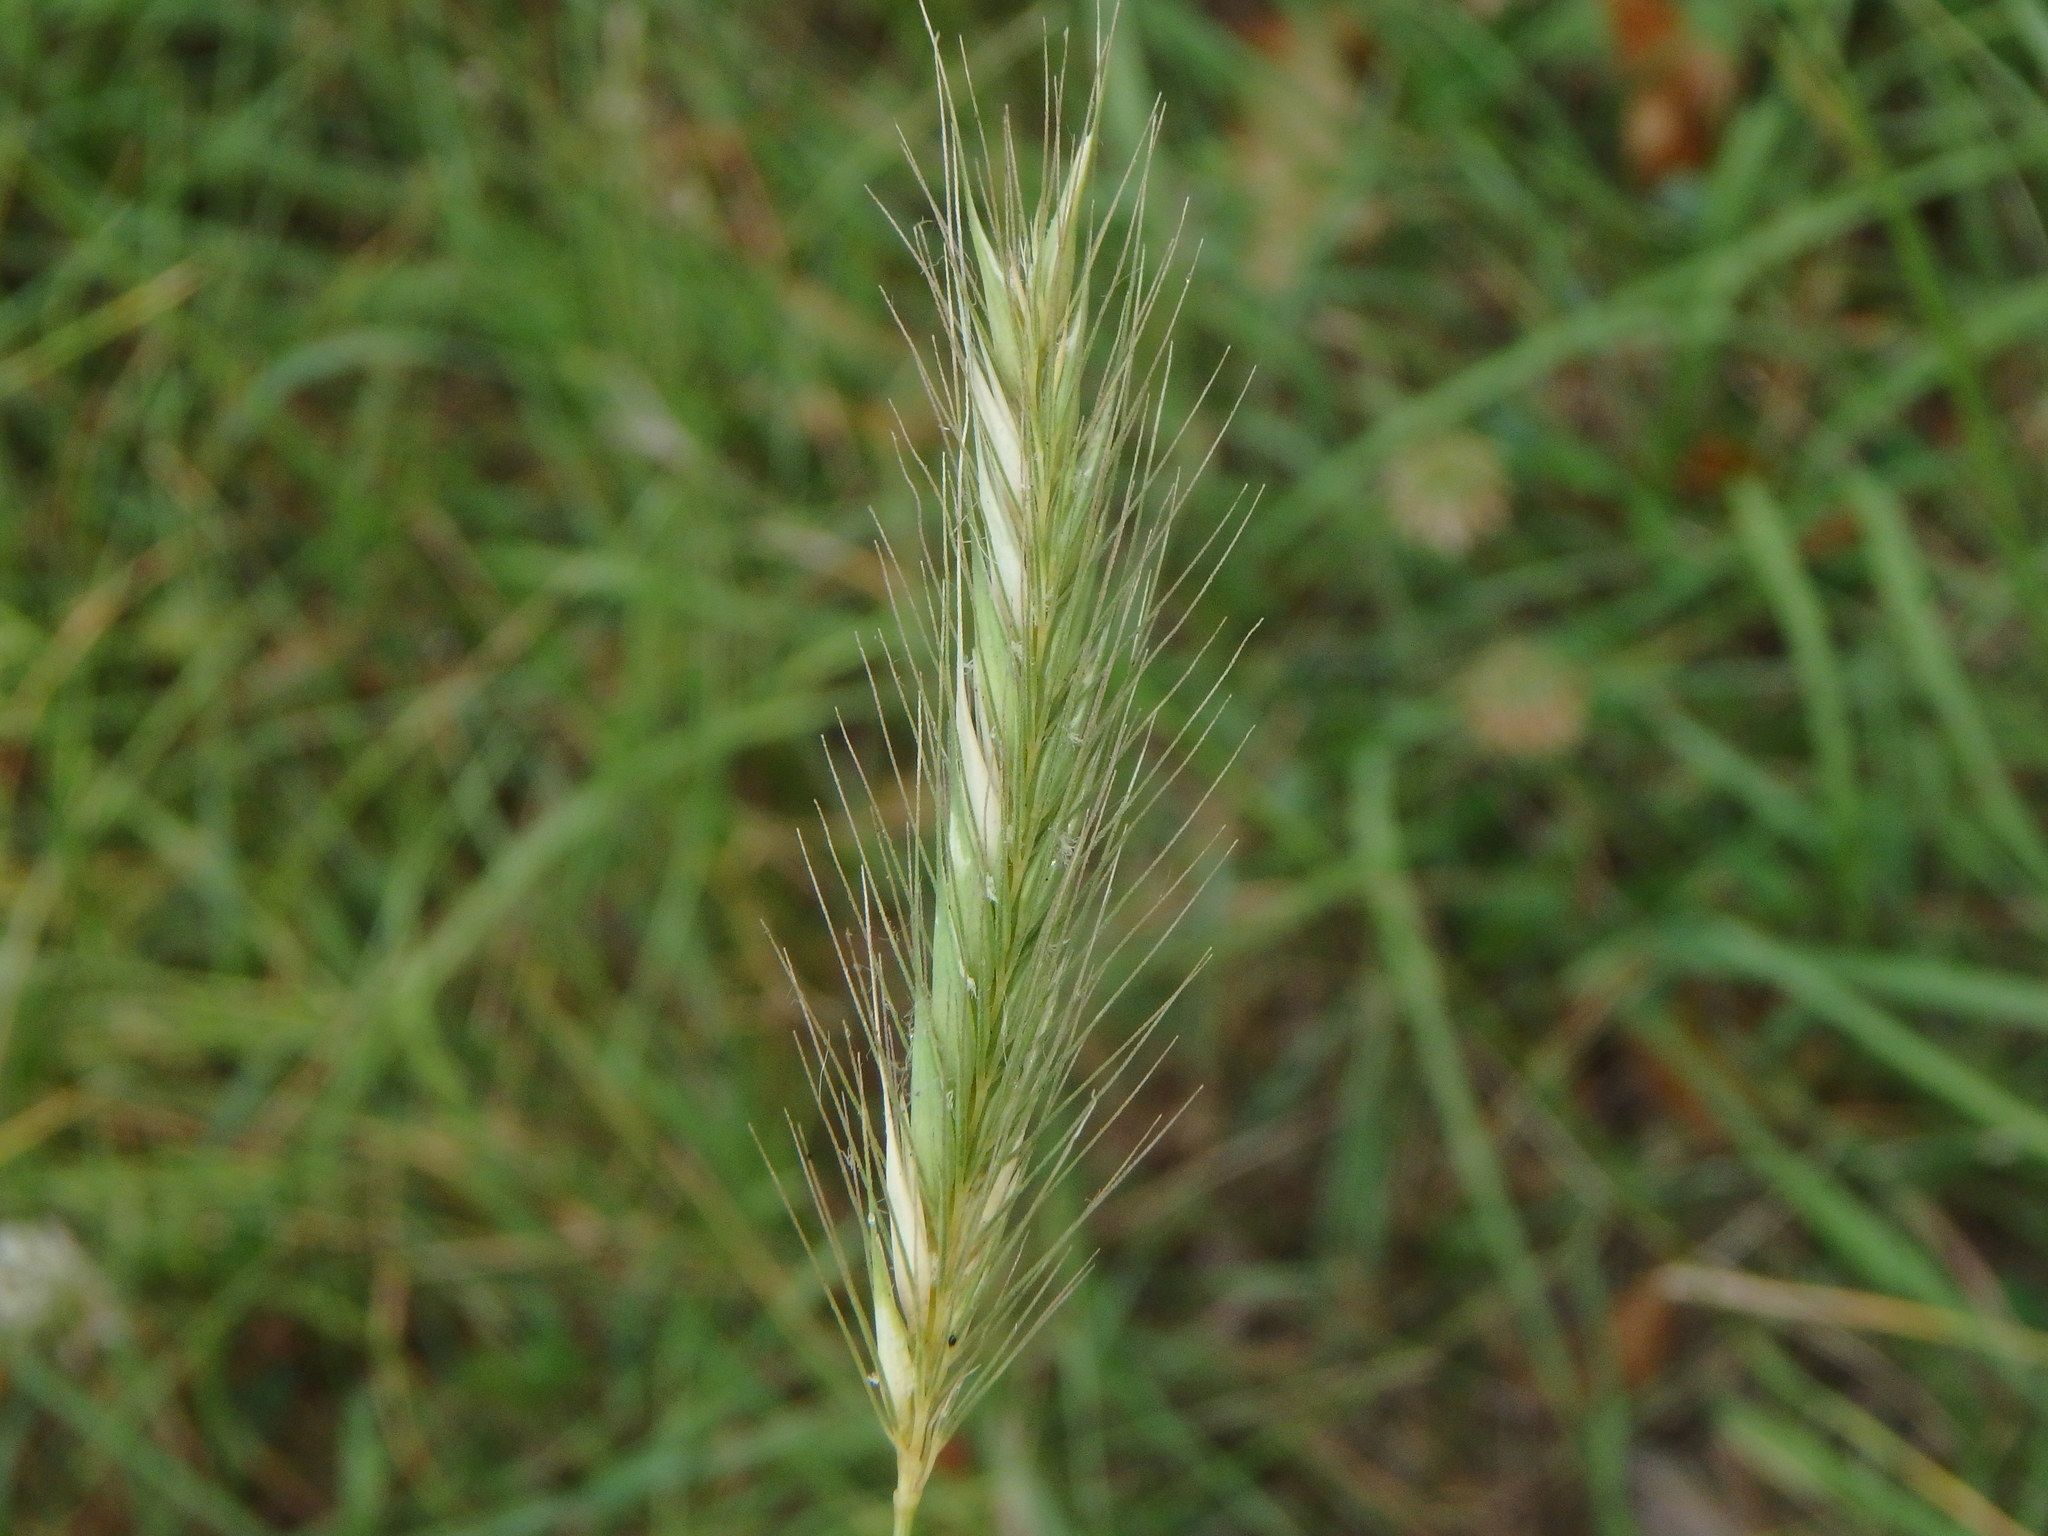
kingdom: Plantae
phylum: Tracheophyta
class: Liliopsida
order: Poales
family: Poaceae
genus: Hordeum
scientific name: Hordeum secalinum
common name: Meadow barley
